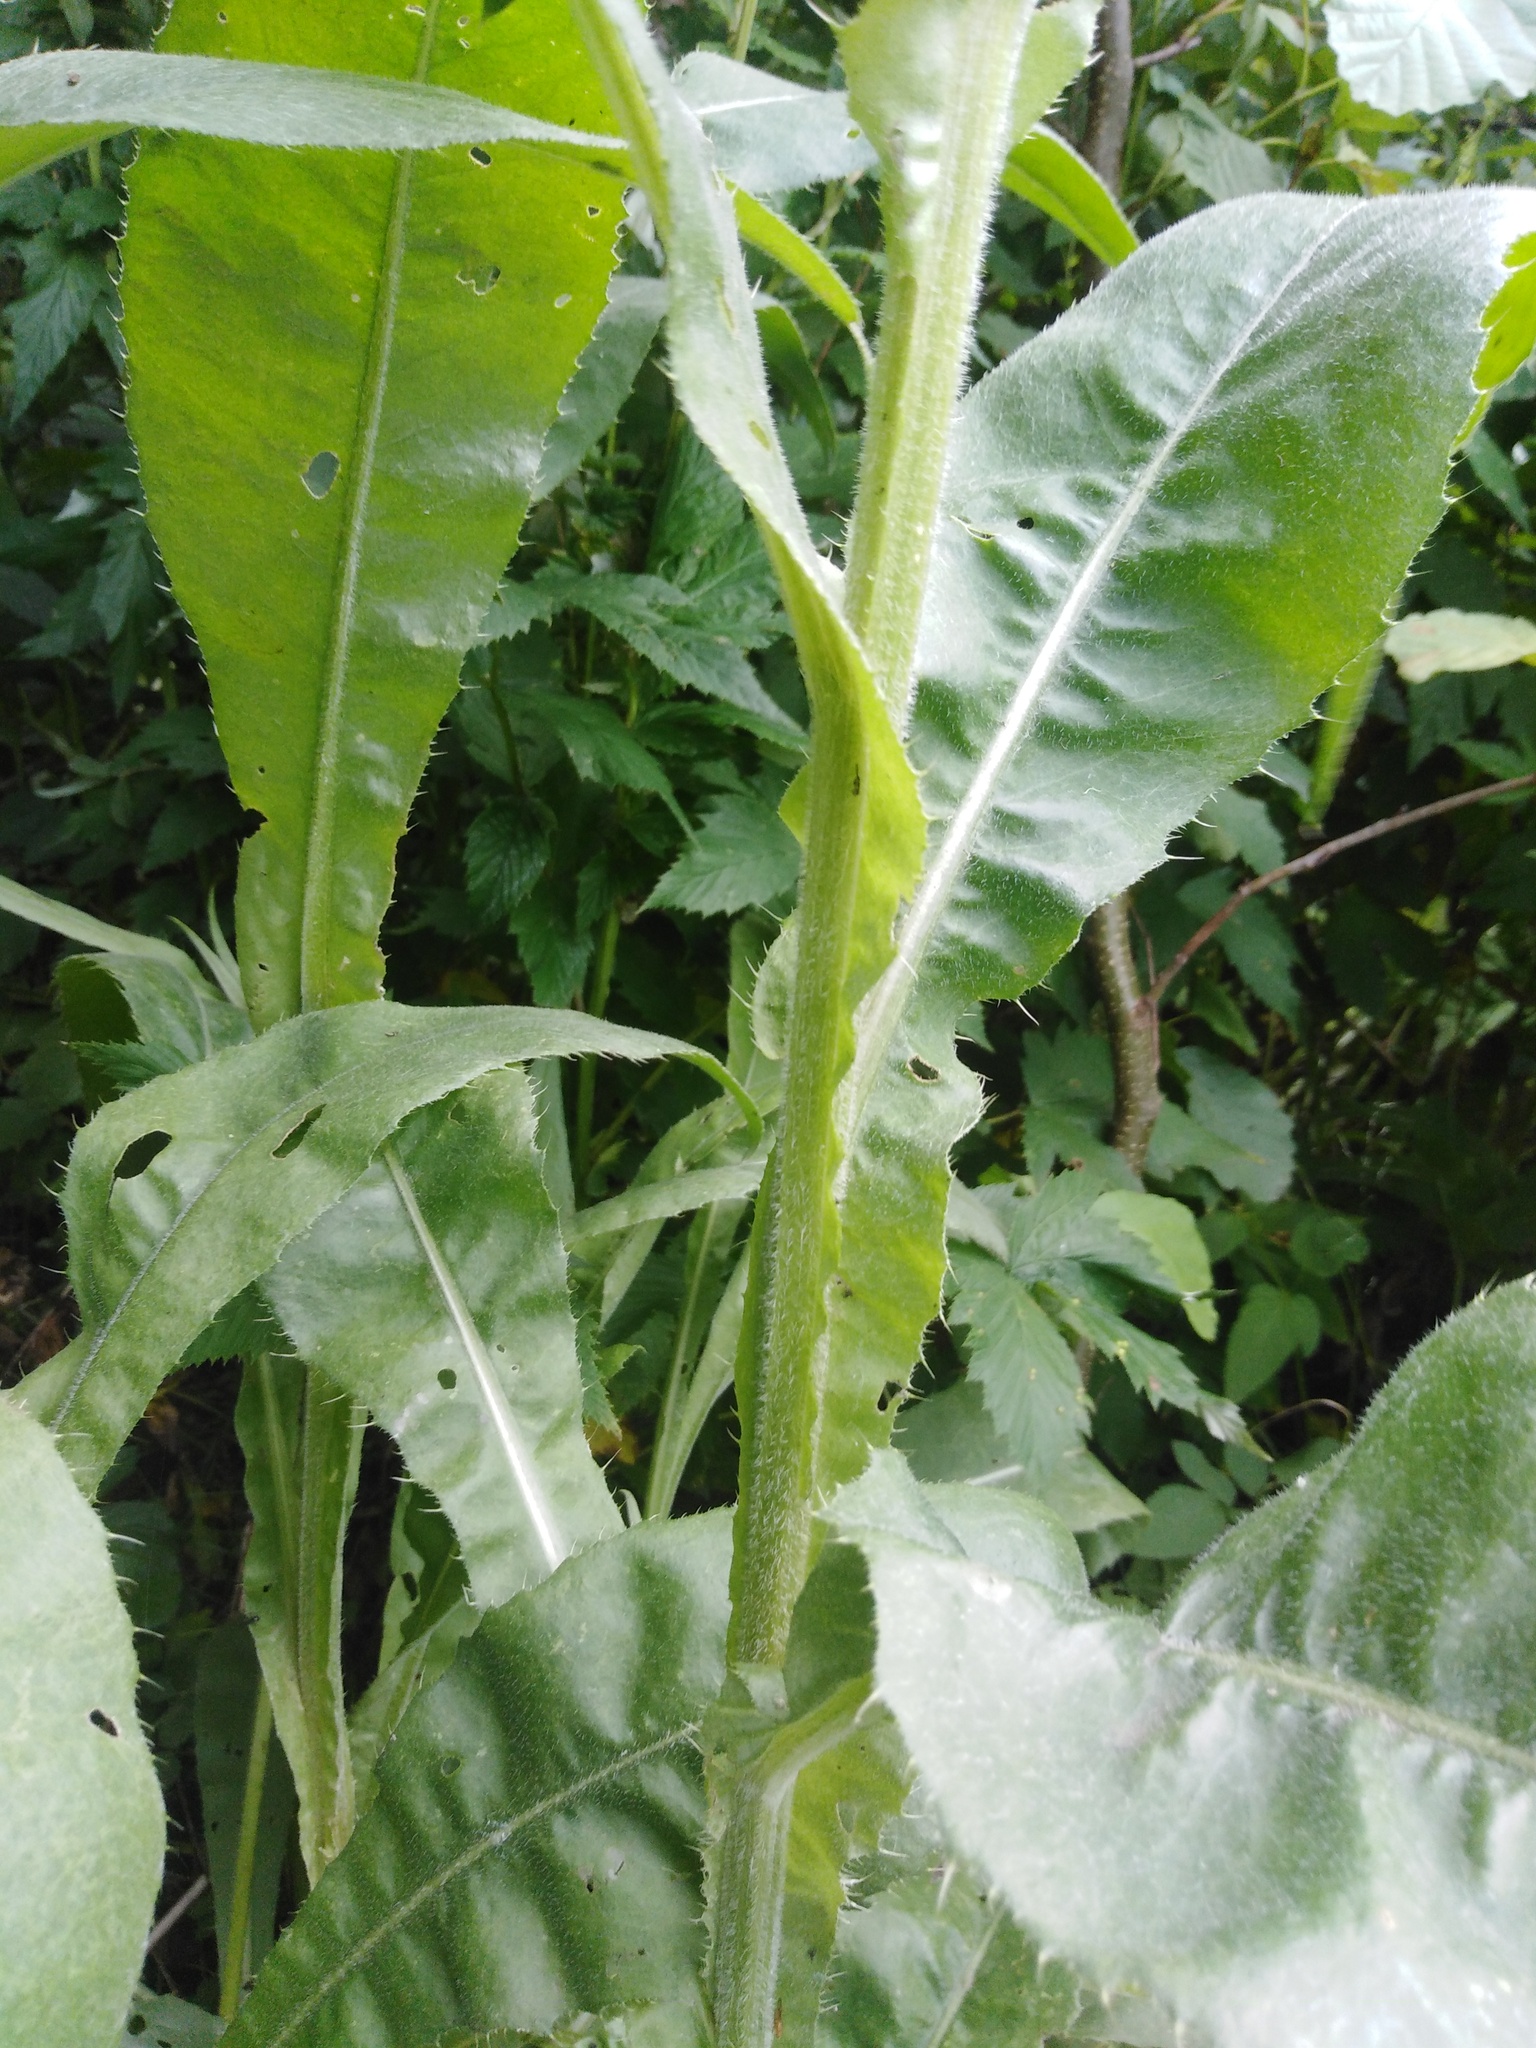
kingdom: Plantae
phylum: Tracheophyta
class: Magnoliopsida
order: Asterales
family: Asteraceae
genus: Cirsium
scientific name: Cirsium canum
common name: Queen anne's thistle
